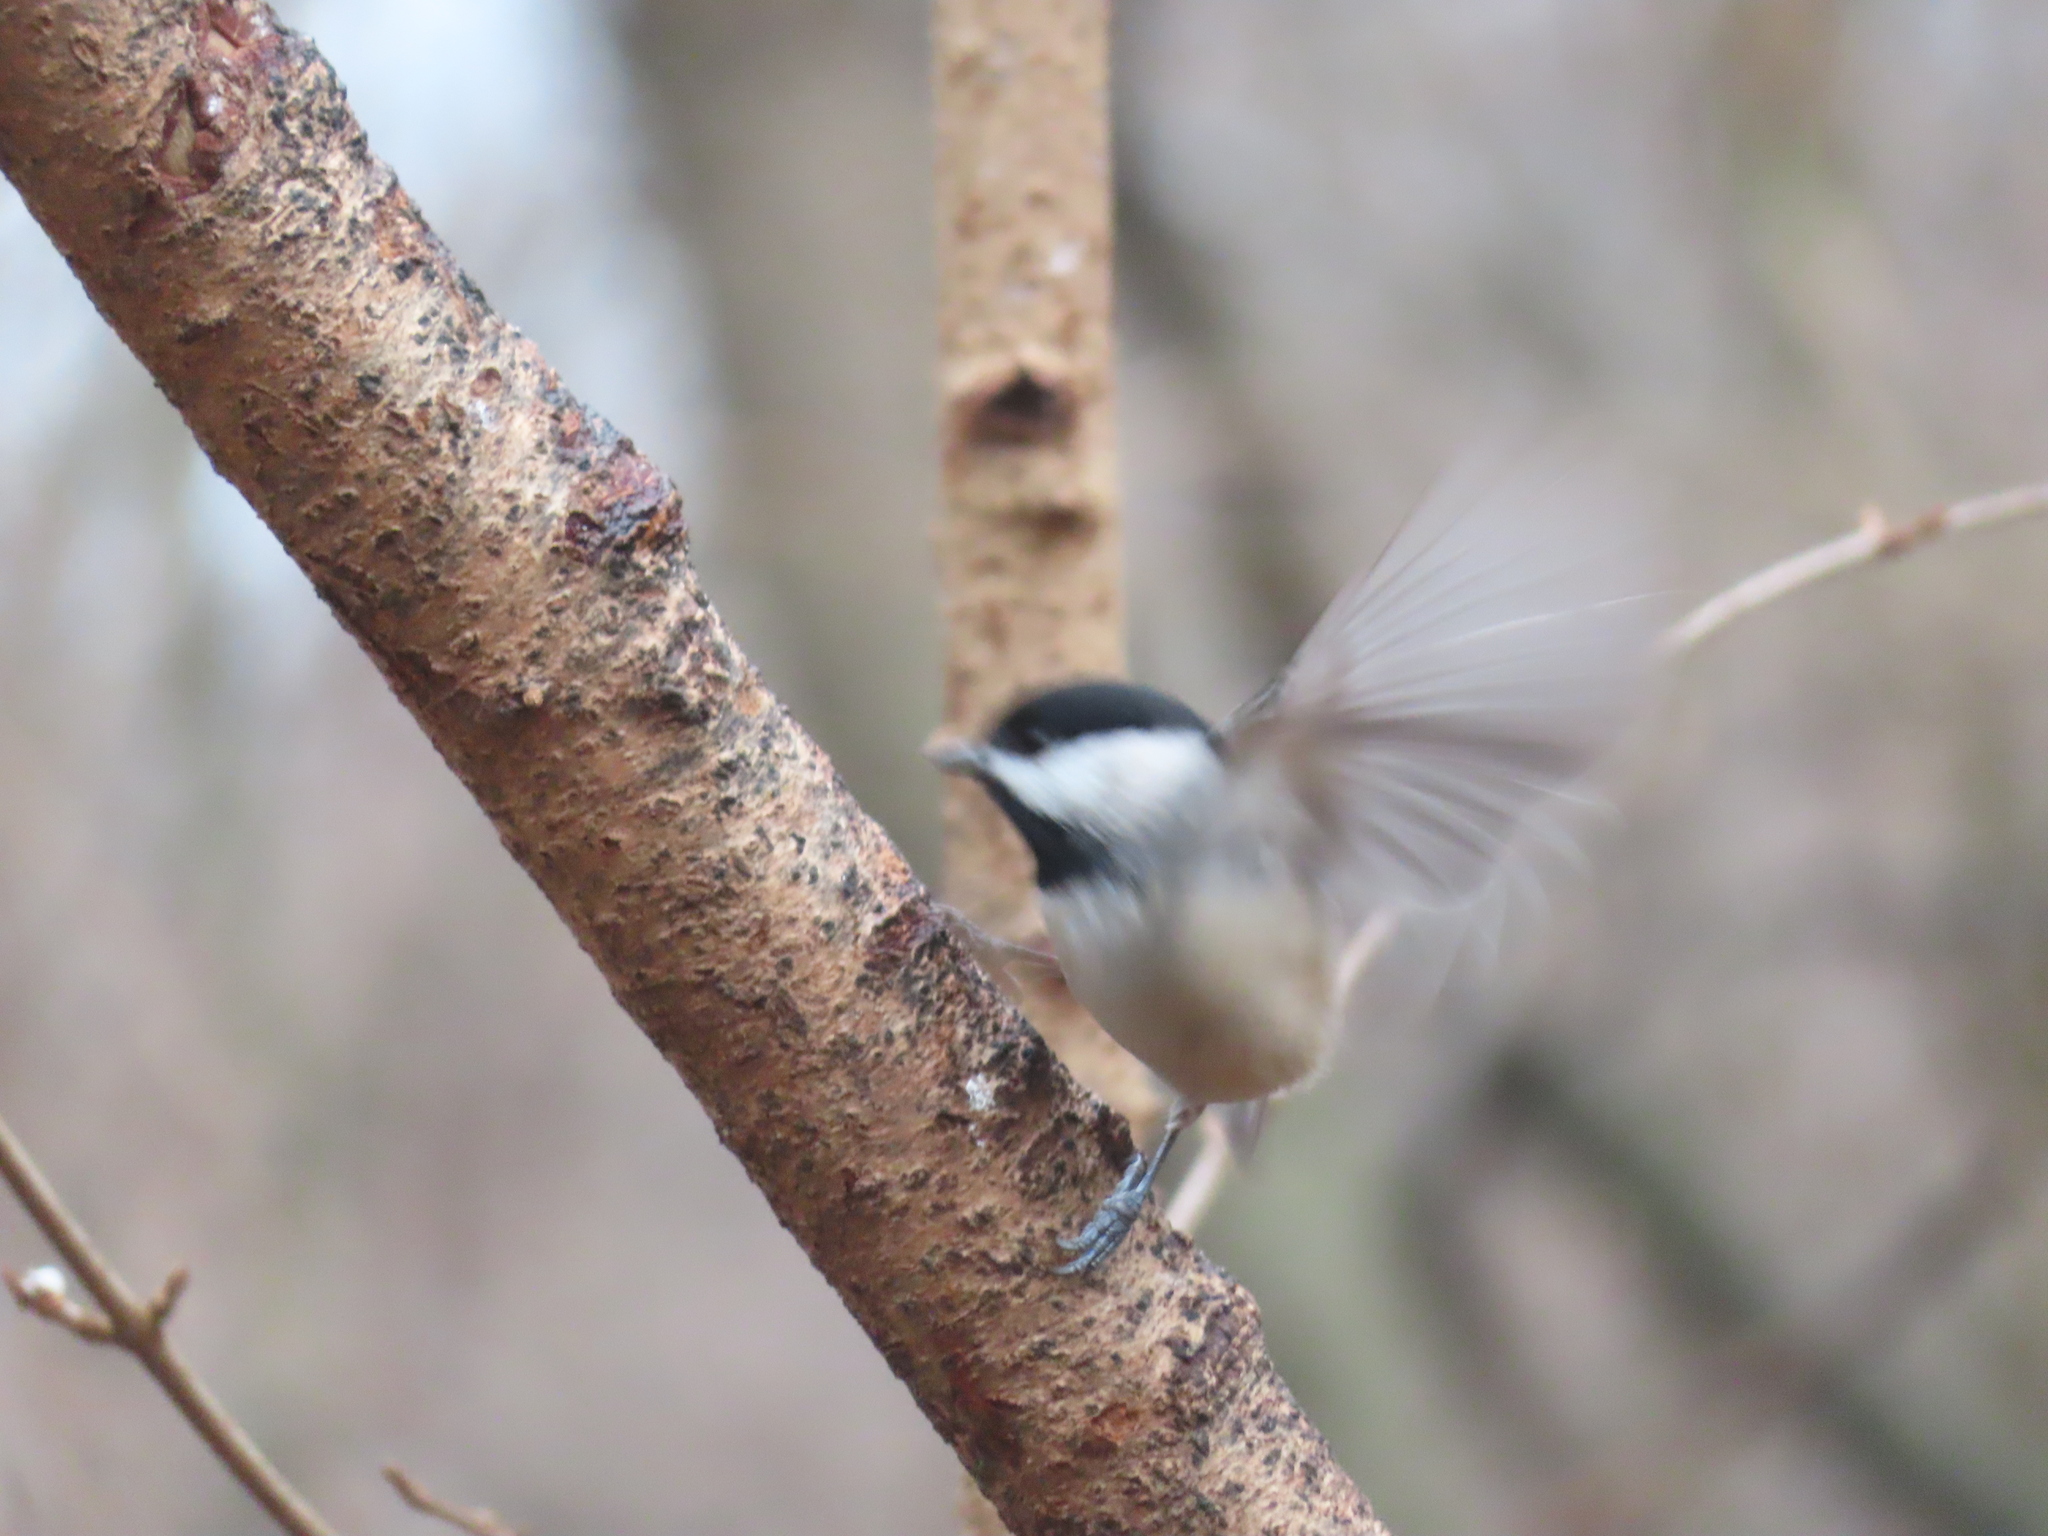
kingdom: Animalia
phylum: Chordata
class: Aves
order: Passeriformes
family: Paridae
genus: Poecile
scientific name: Poecile carolinensis
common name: Carolina chickadee
